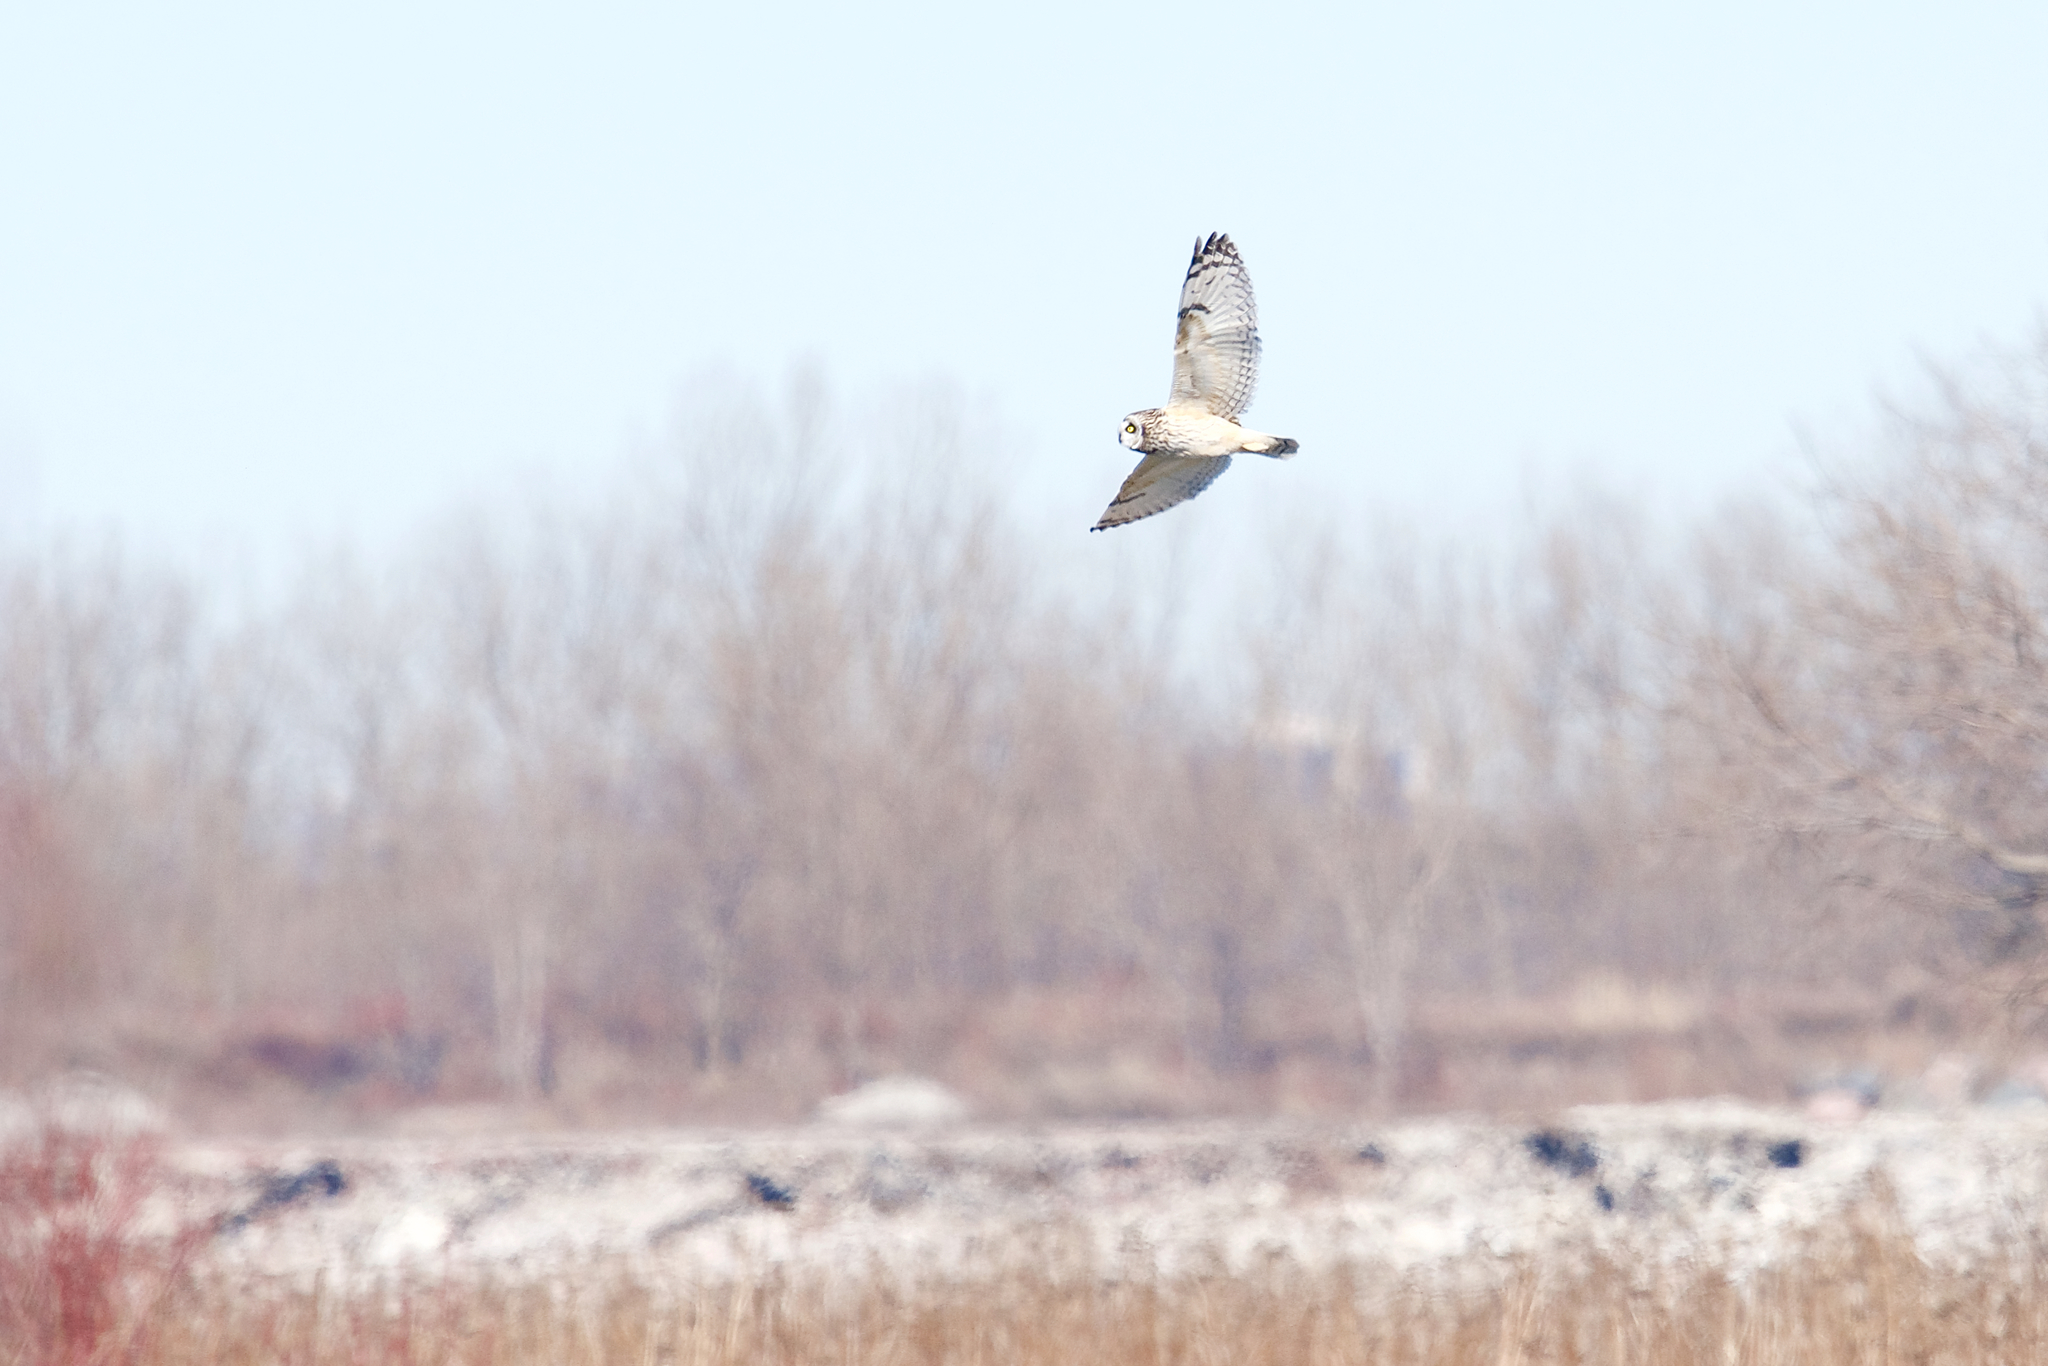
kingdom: Animalia
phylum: Chordata
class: Aves
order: Strigiformes
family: Strigidae
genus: Asio
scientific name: Asio flammeus
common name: Short-eared owl
